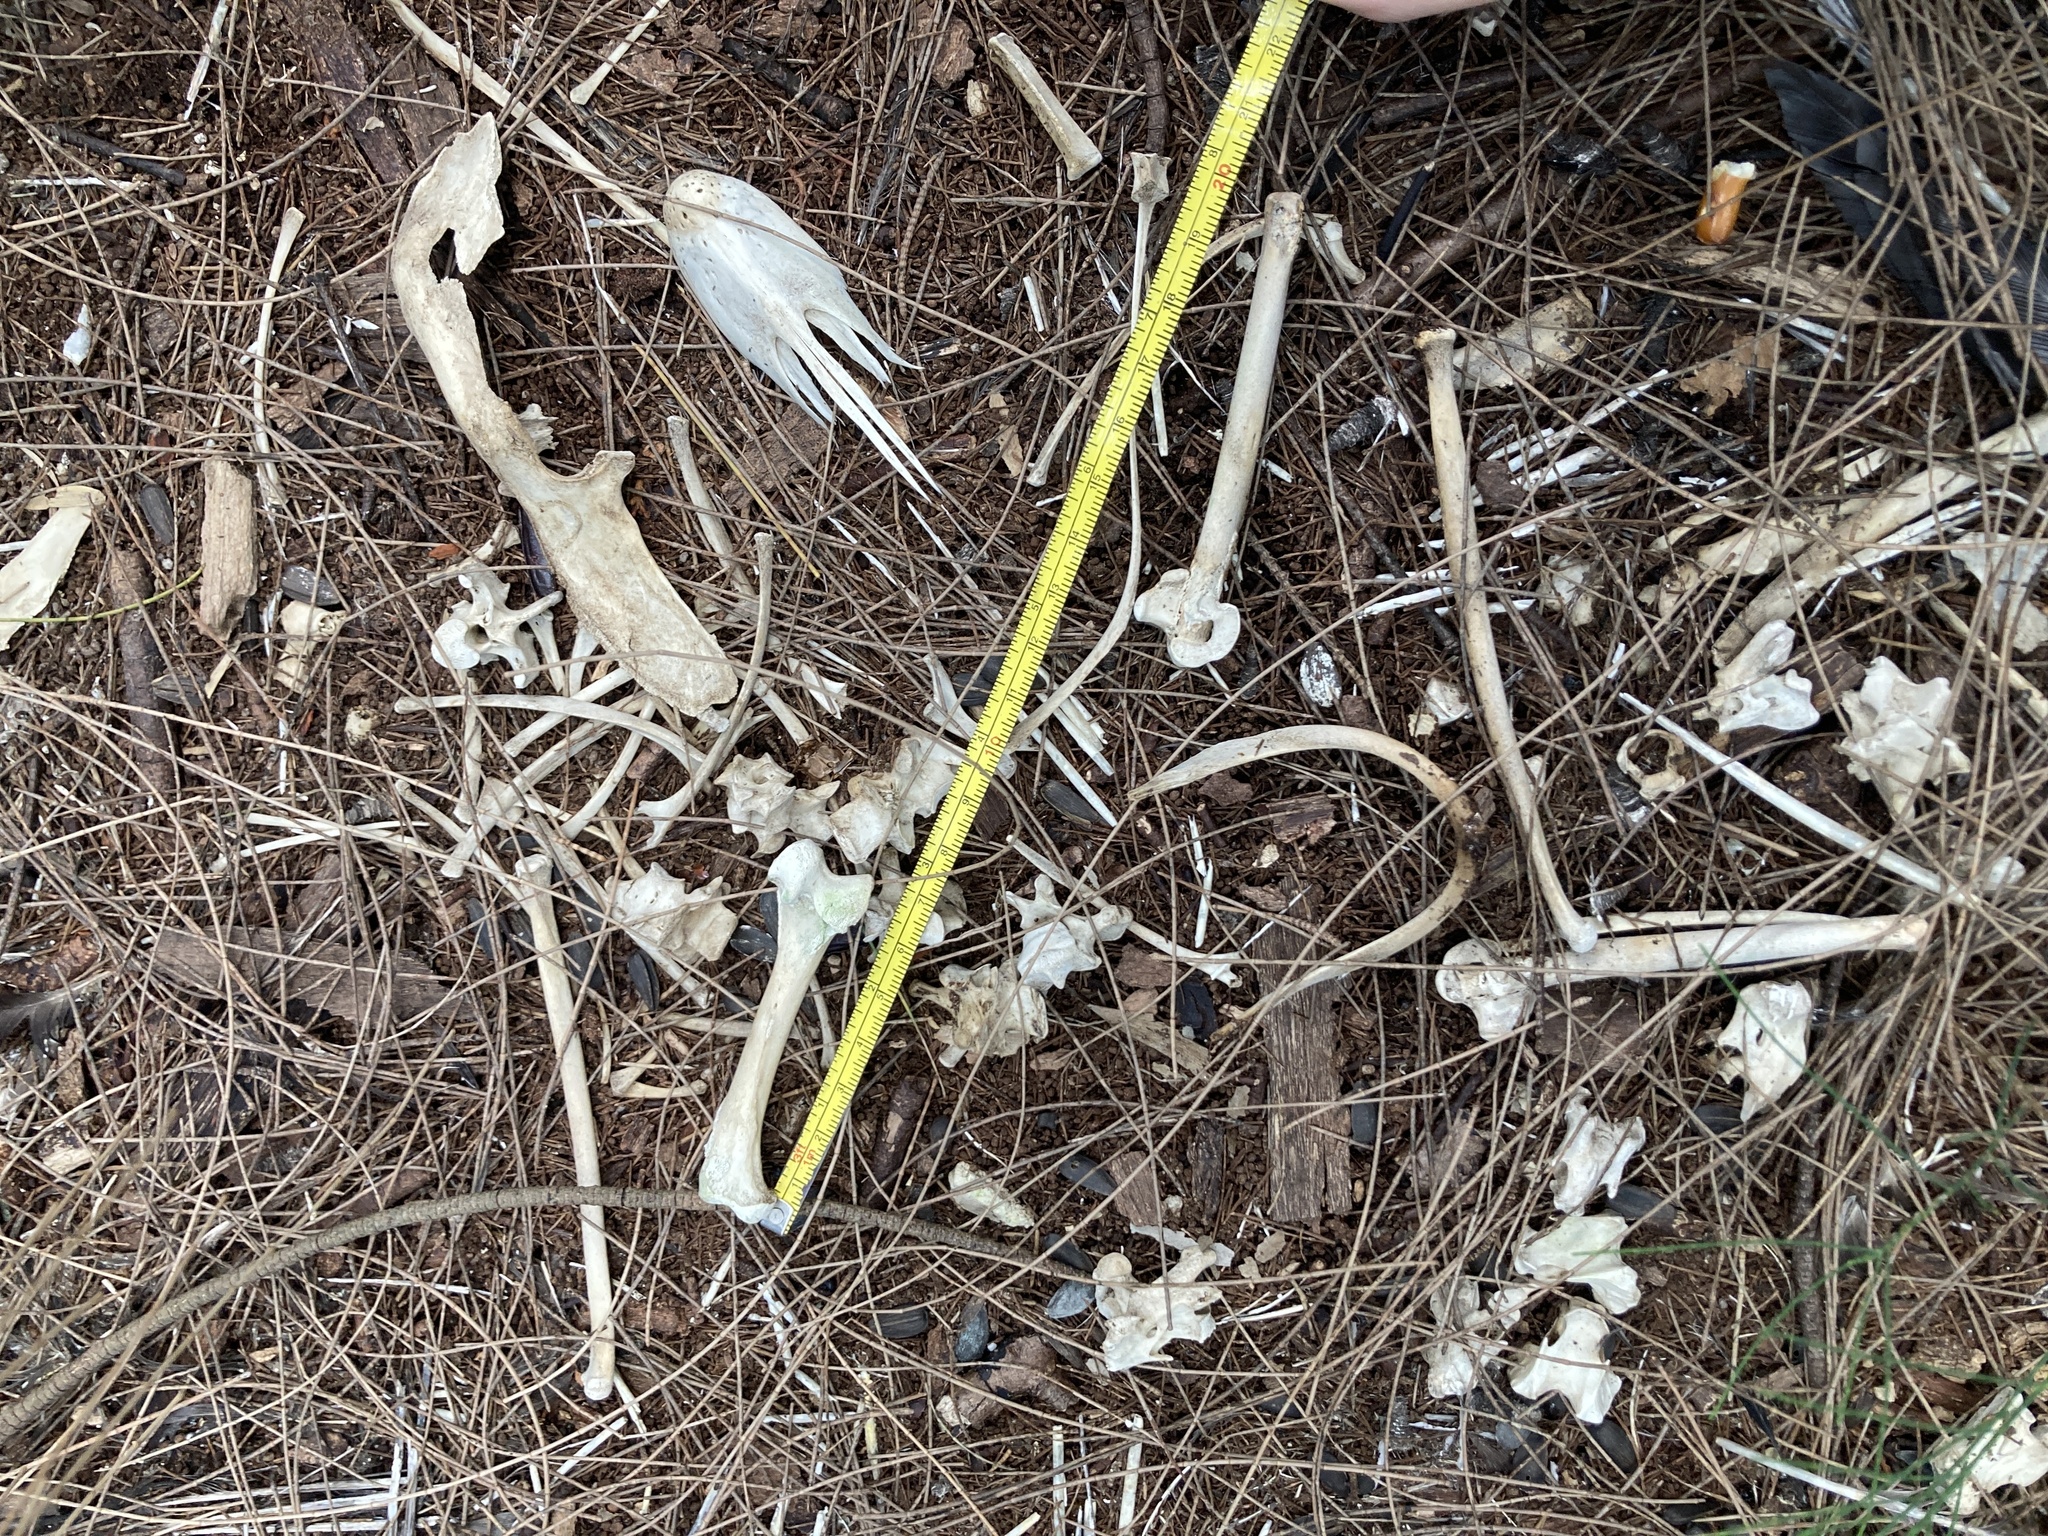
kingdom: Animalia
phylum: Chordata
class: Aves
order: Anseriformes
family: Anatidae
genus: Cairina
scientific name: Cairina moschata
